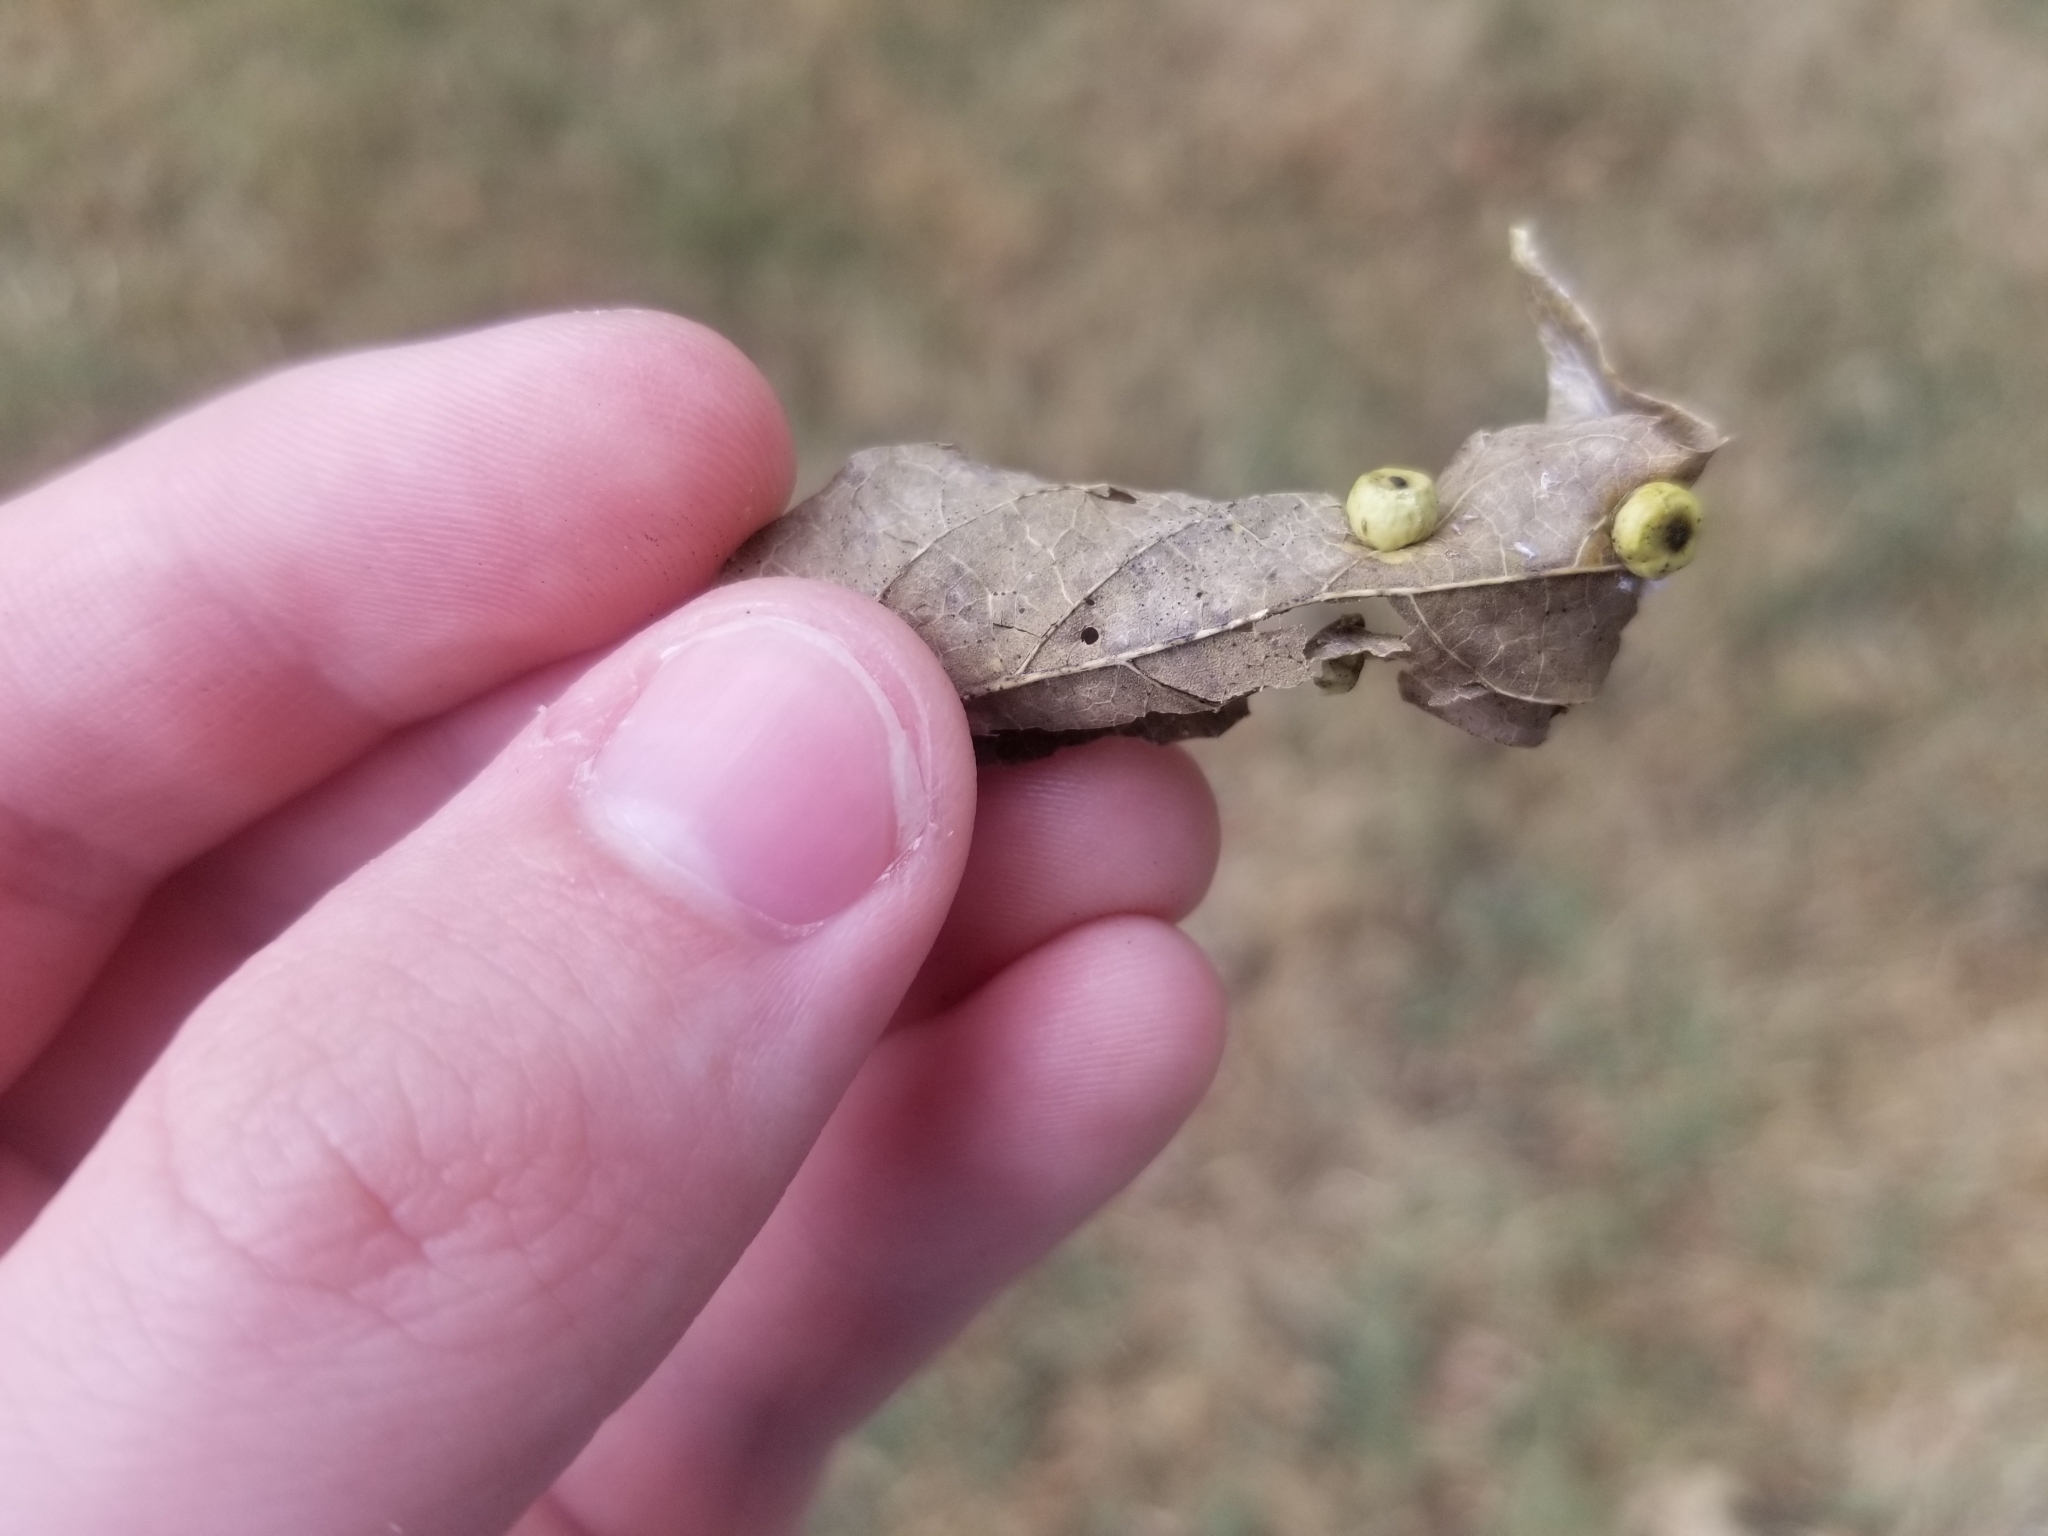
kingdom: Animalia
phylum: Arthropoda
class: Insecta
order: Hemiptera
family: Aphalaridae
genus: Pachypsylla
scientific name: Pachypsylla celtidismamma
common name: Hackberry nipplegall psyllid
